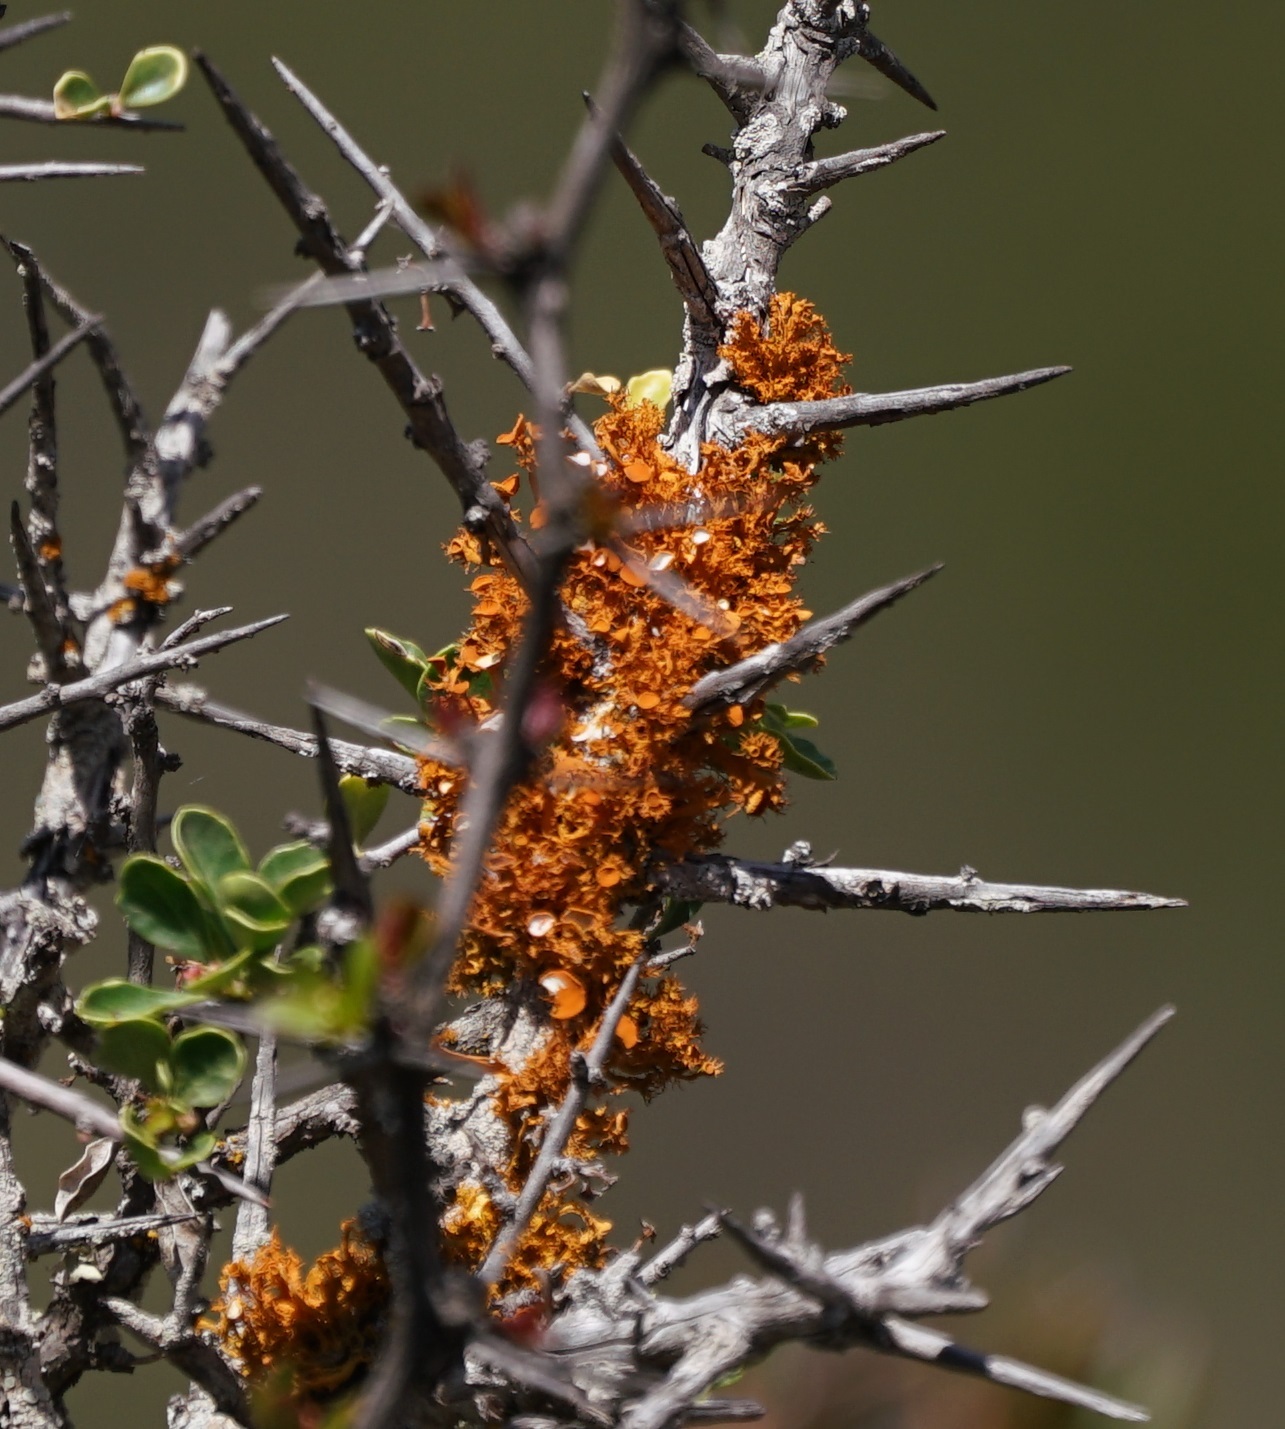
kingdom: Fungi
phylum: Ascomycota
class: Lecanoromycetes
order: Teloschistales
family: Teloschistaceae
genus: Polycauliona
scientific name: Polycauliona candelaria
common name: Shrubby sunburst lichen
